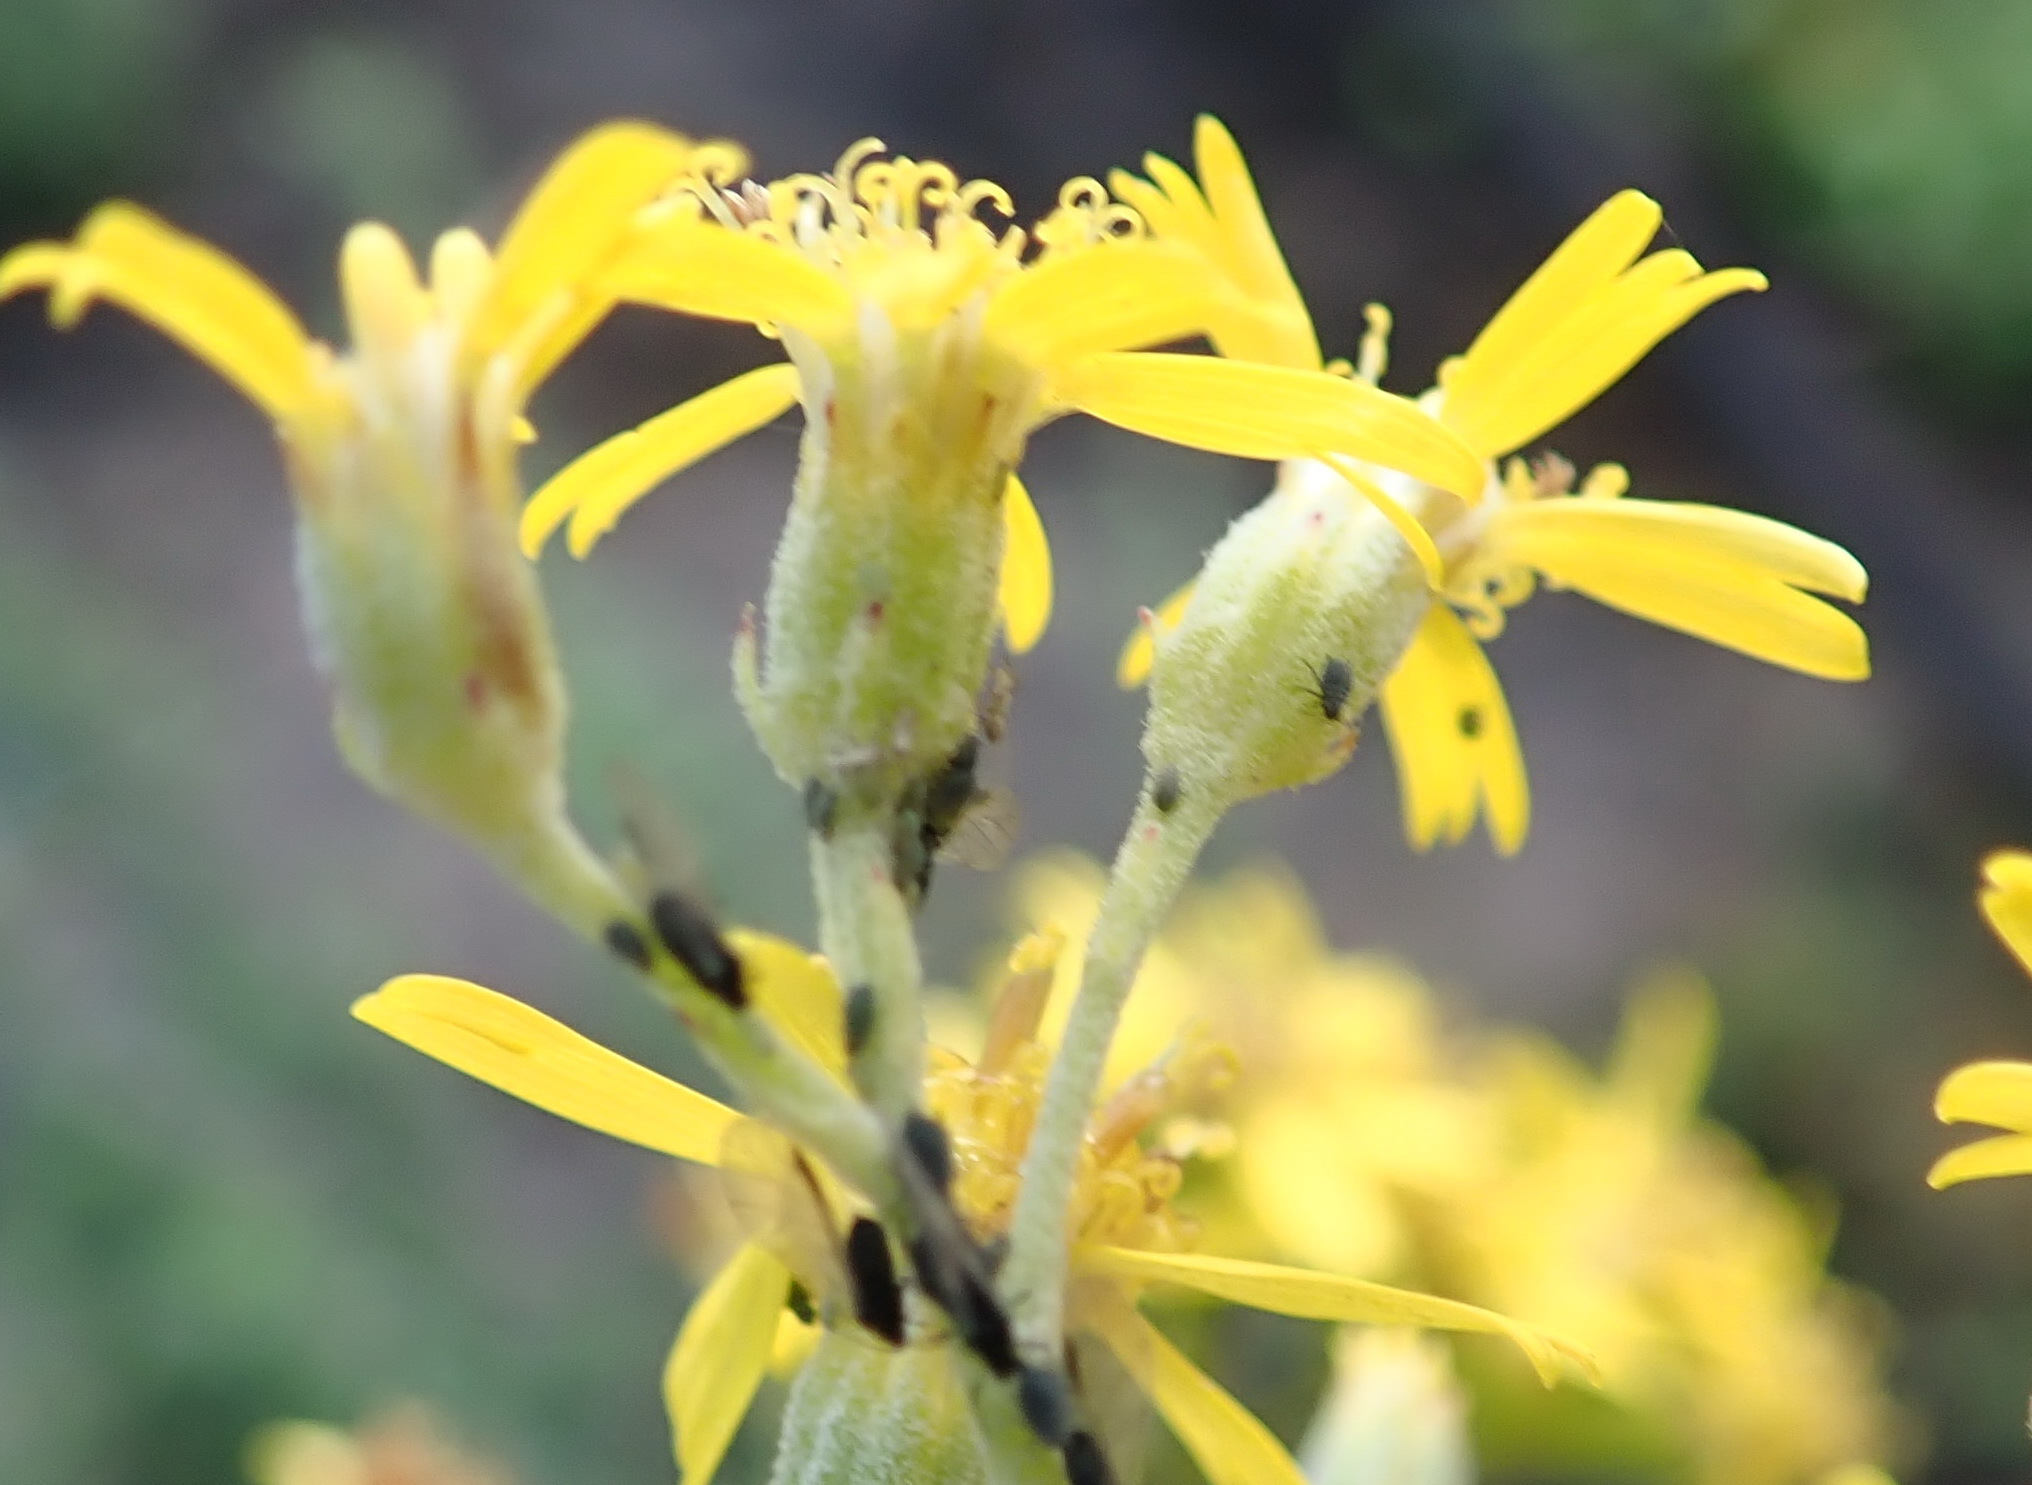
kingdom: Plantae
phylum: Tracheophyta
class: Magnoliopsida
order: Asterales
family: Asteraceae
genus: Senecio
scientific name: Senecio crenatus
